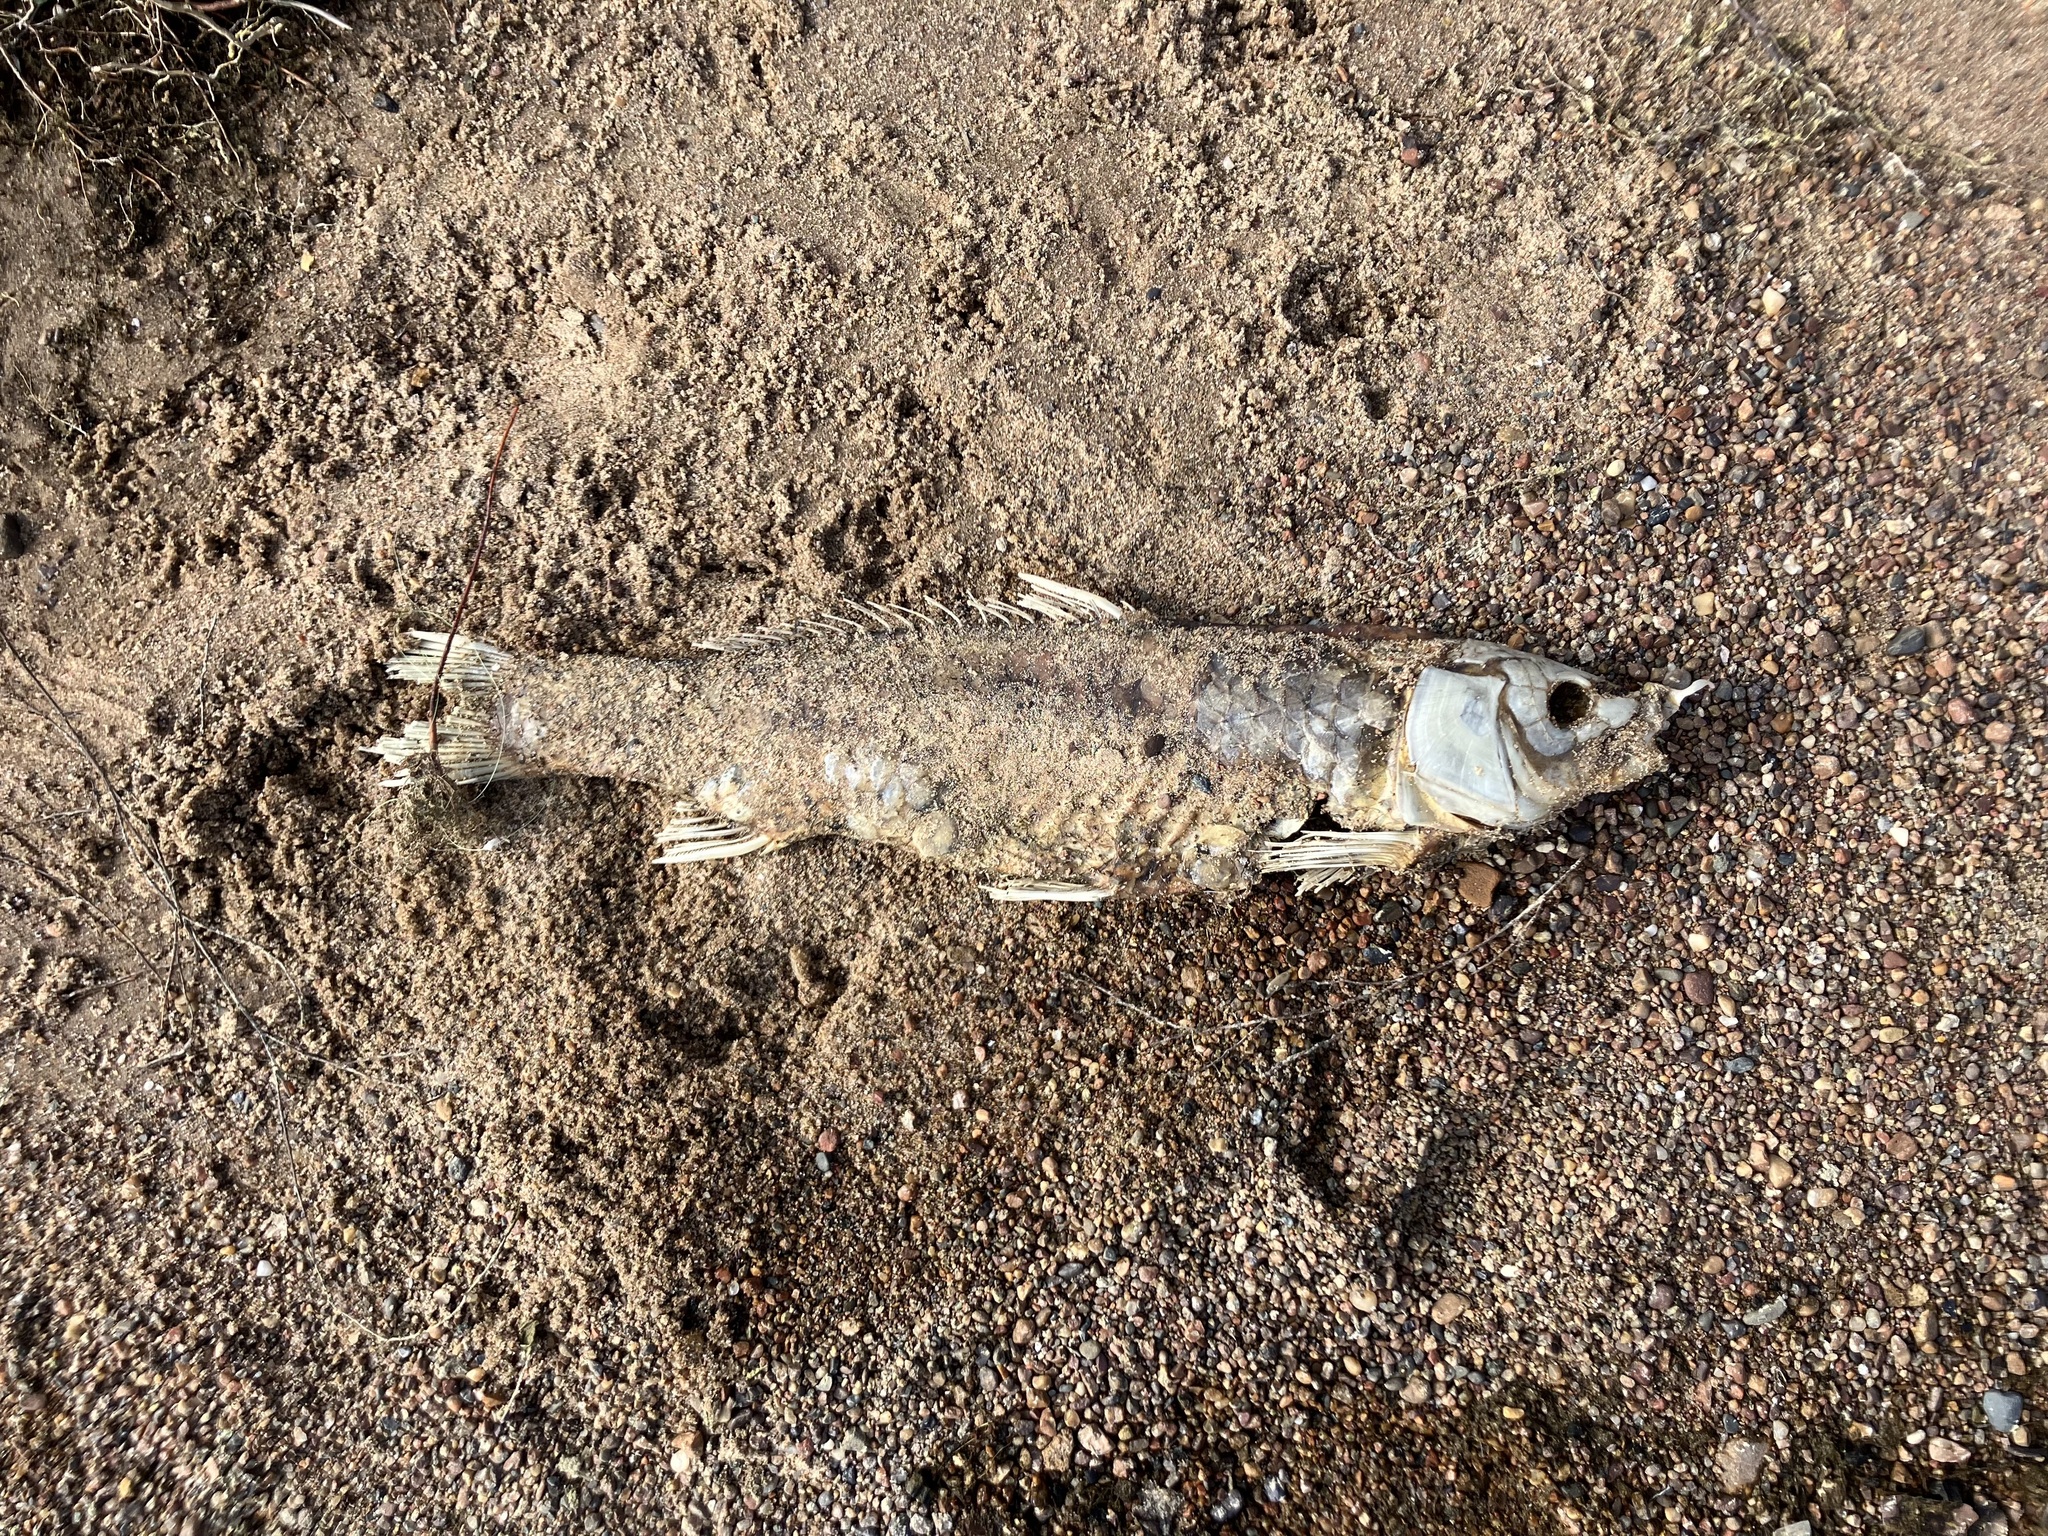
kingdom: Animalia
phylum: Chordata
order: Cypriniformes
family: Cyprinidae
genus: Cyprinus
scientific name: Cyprinus carpio
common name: Common carp
